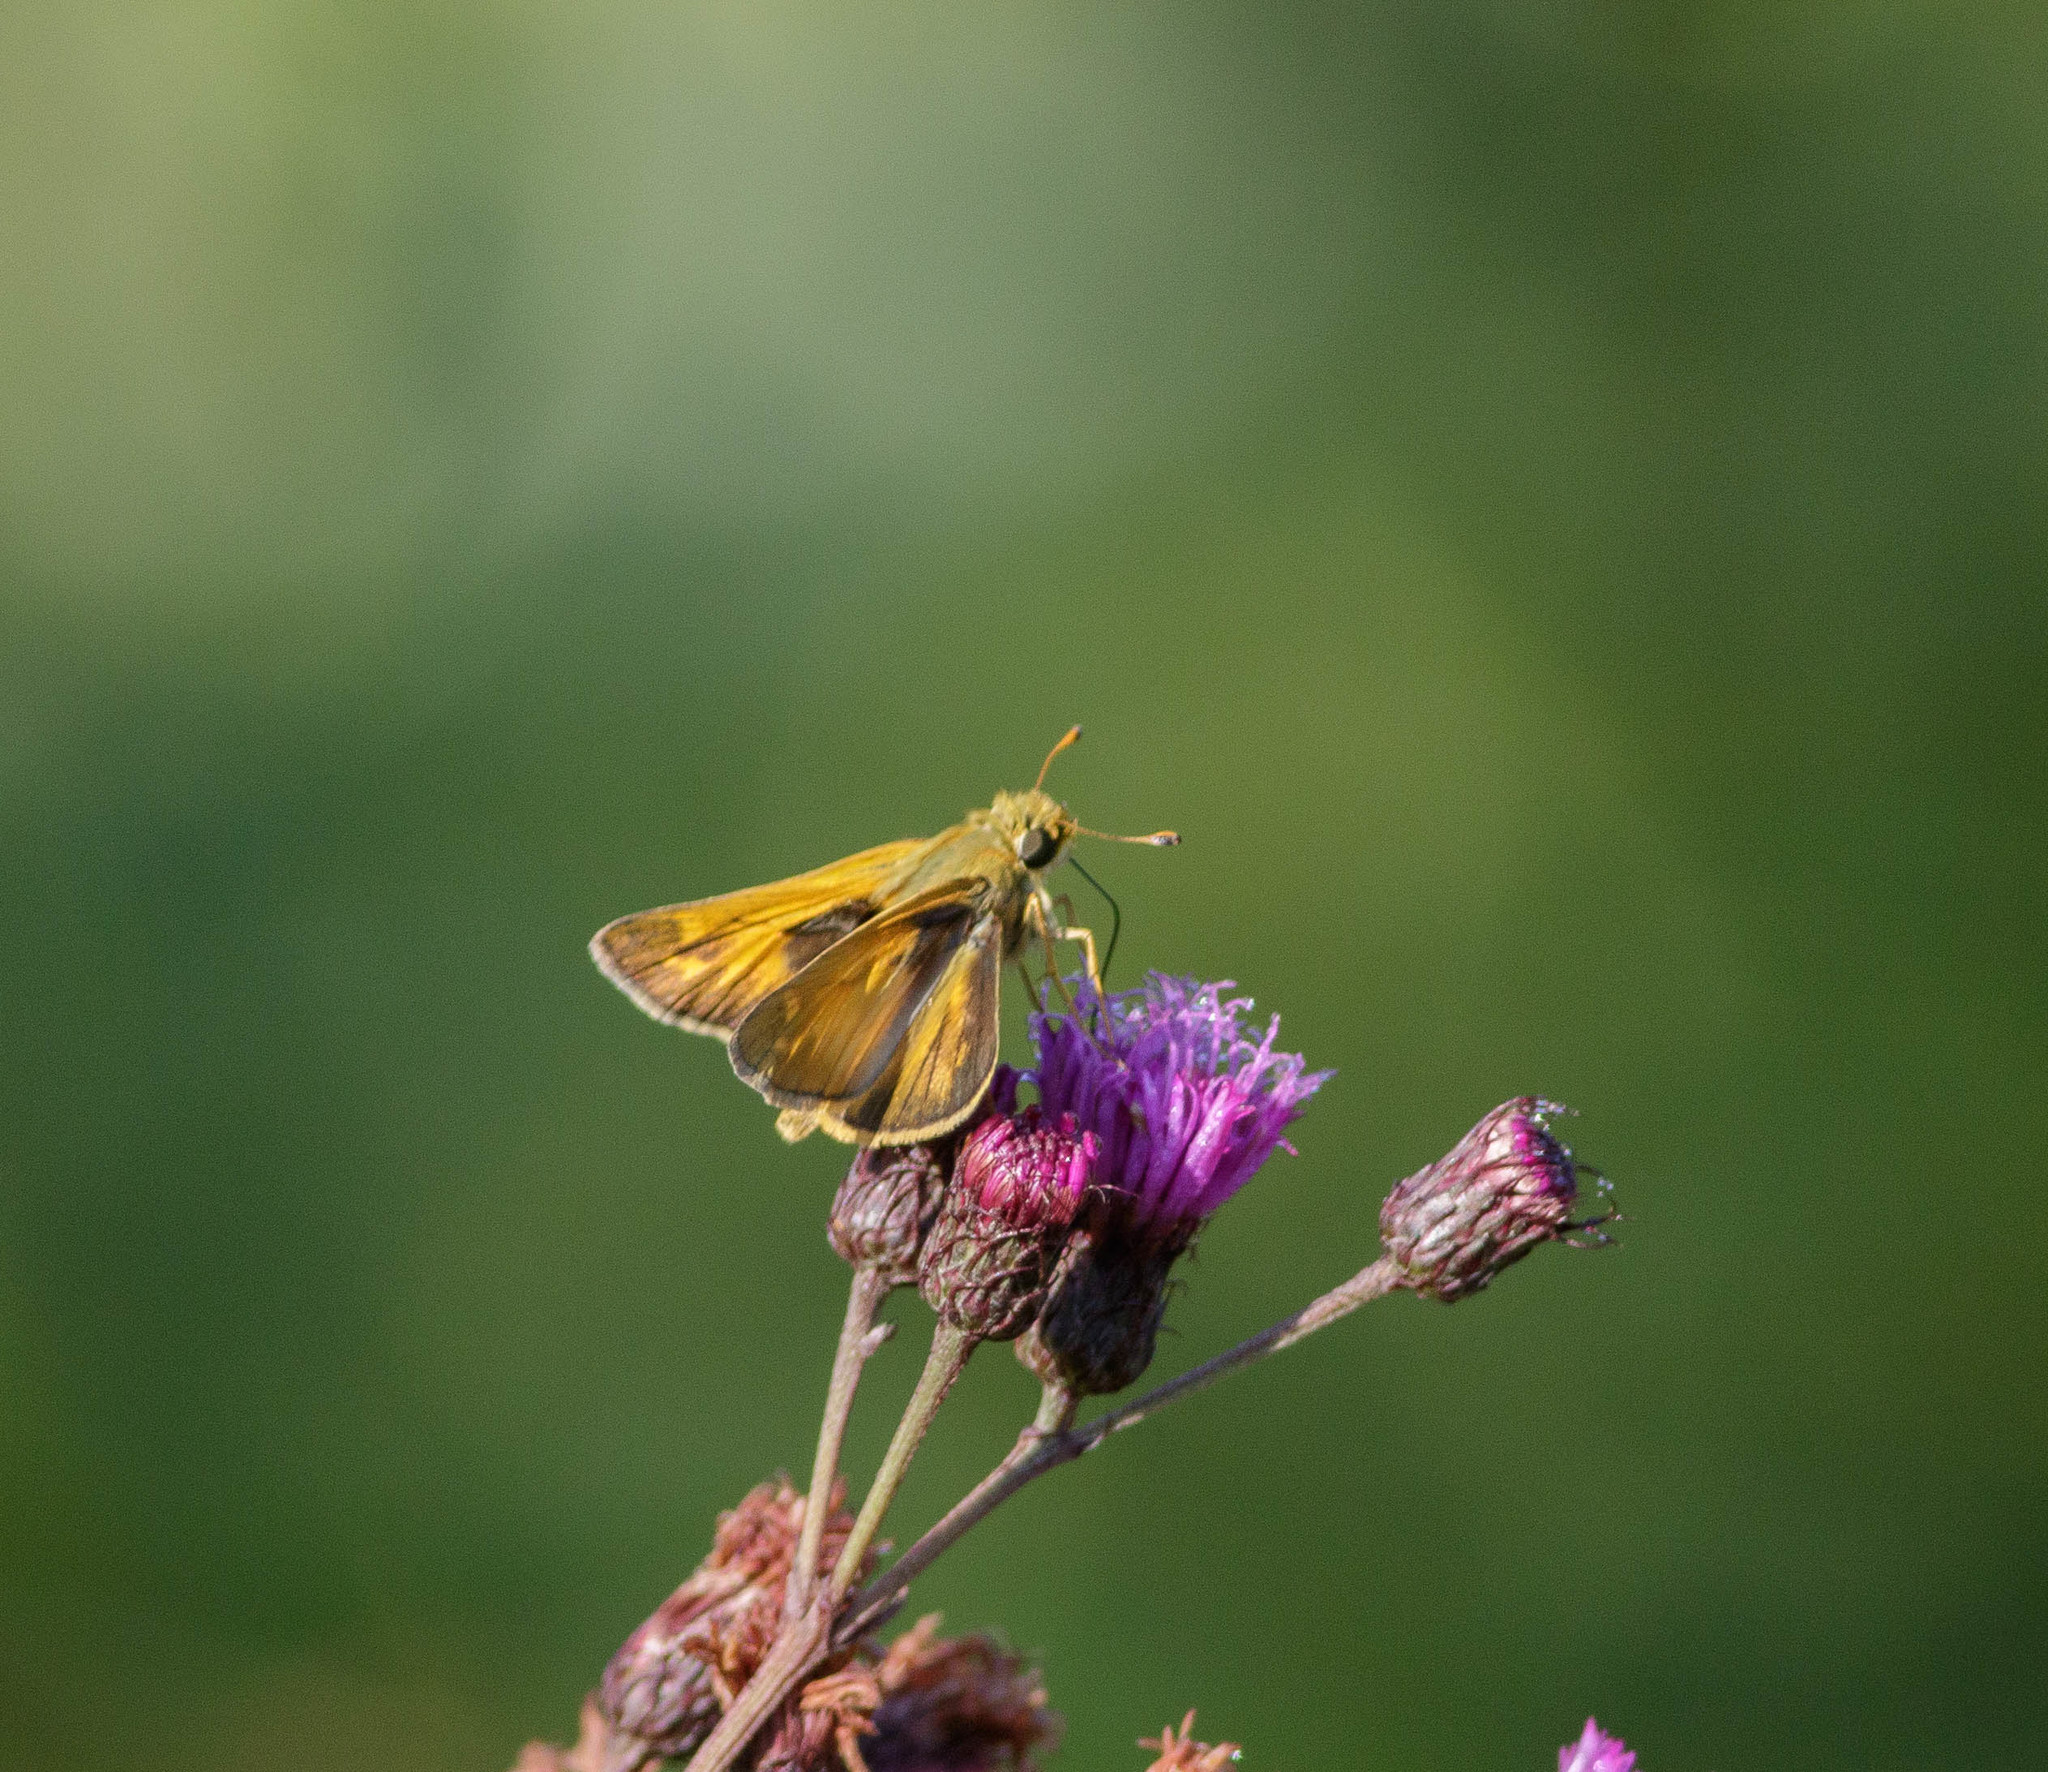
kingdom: Animalia
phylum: Arthropoda
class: Insecta
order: Lepidoptera
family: Hesperiidae
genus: Atalopedes
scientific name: Atalopedes
